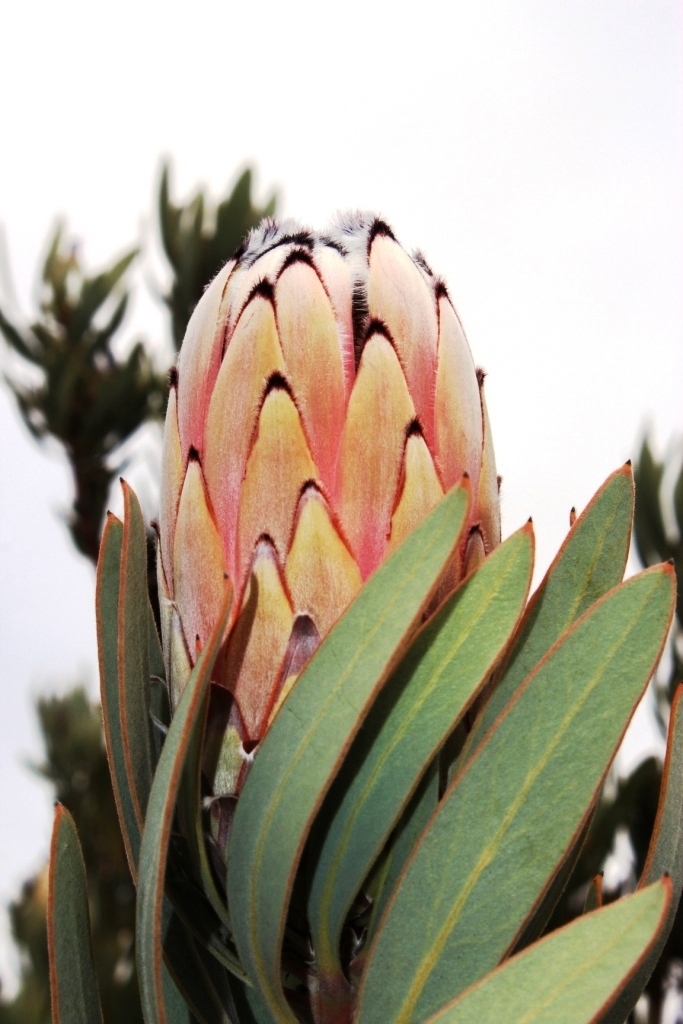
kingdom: Plantae
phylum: Tracheophyta
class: Magnoliopsida
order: Proteales
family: Proteaceae
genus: Protea
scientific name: Protea laurifolia
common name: Grey-leaf sugarbsh
